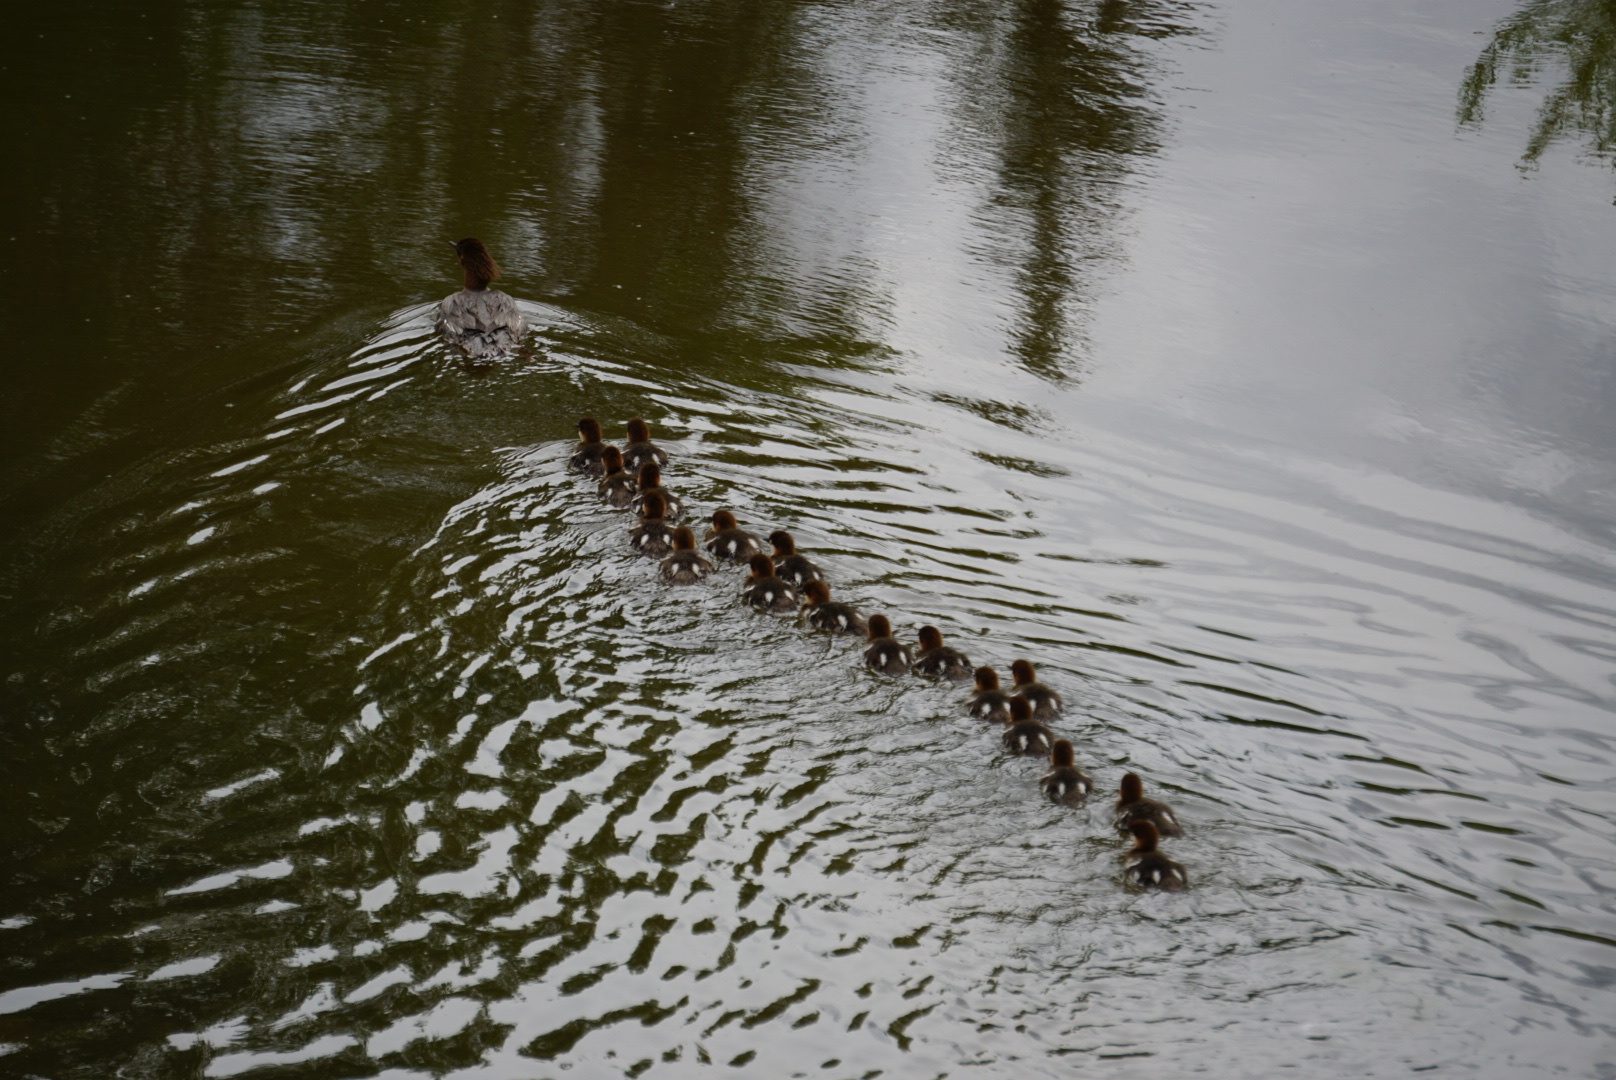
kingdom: Animalia
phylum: Chordata
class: Aves
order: Anseriformes
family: Anatidae
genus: Mergus
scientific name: Mergus merganser
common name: Common merganser
